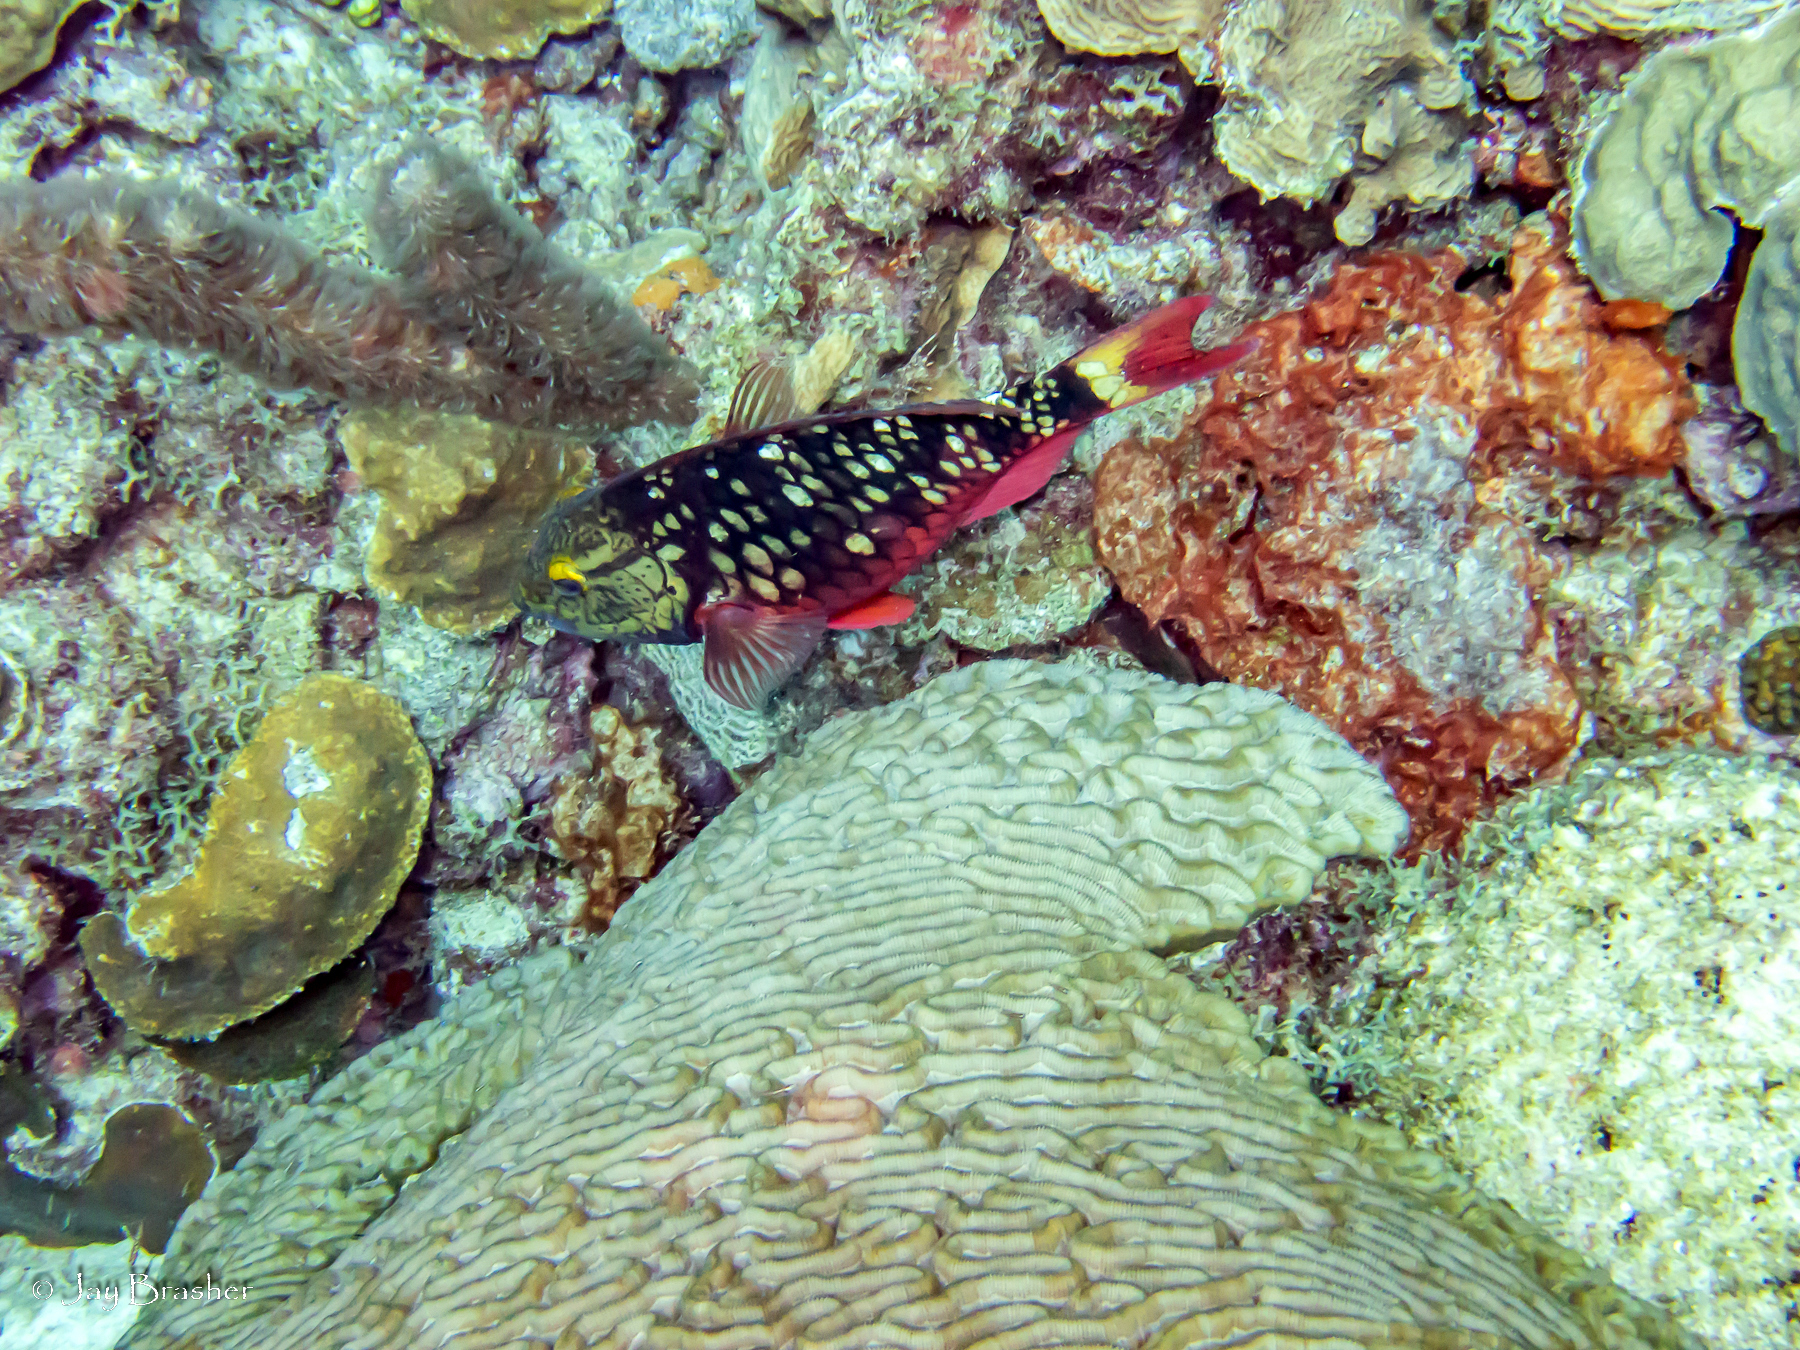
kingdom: Animalia
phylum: Chordata
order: Perciformes
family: Scaridae
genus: Sparisoma
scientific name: Sparisoma viride
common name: Stoplight parrotfish
